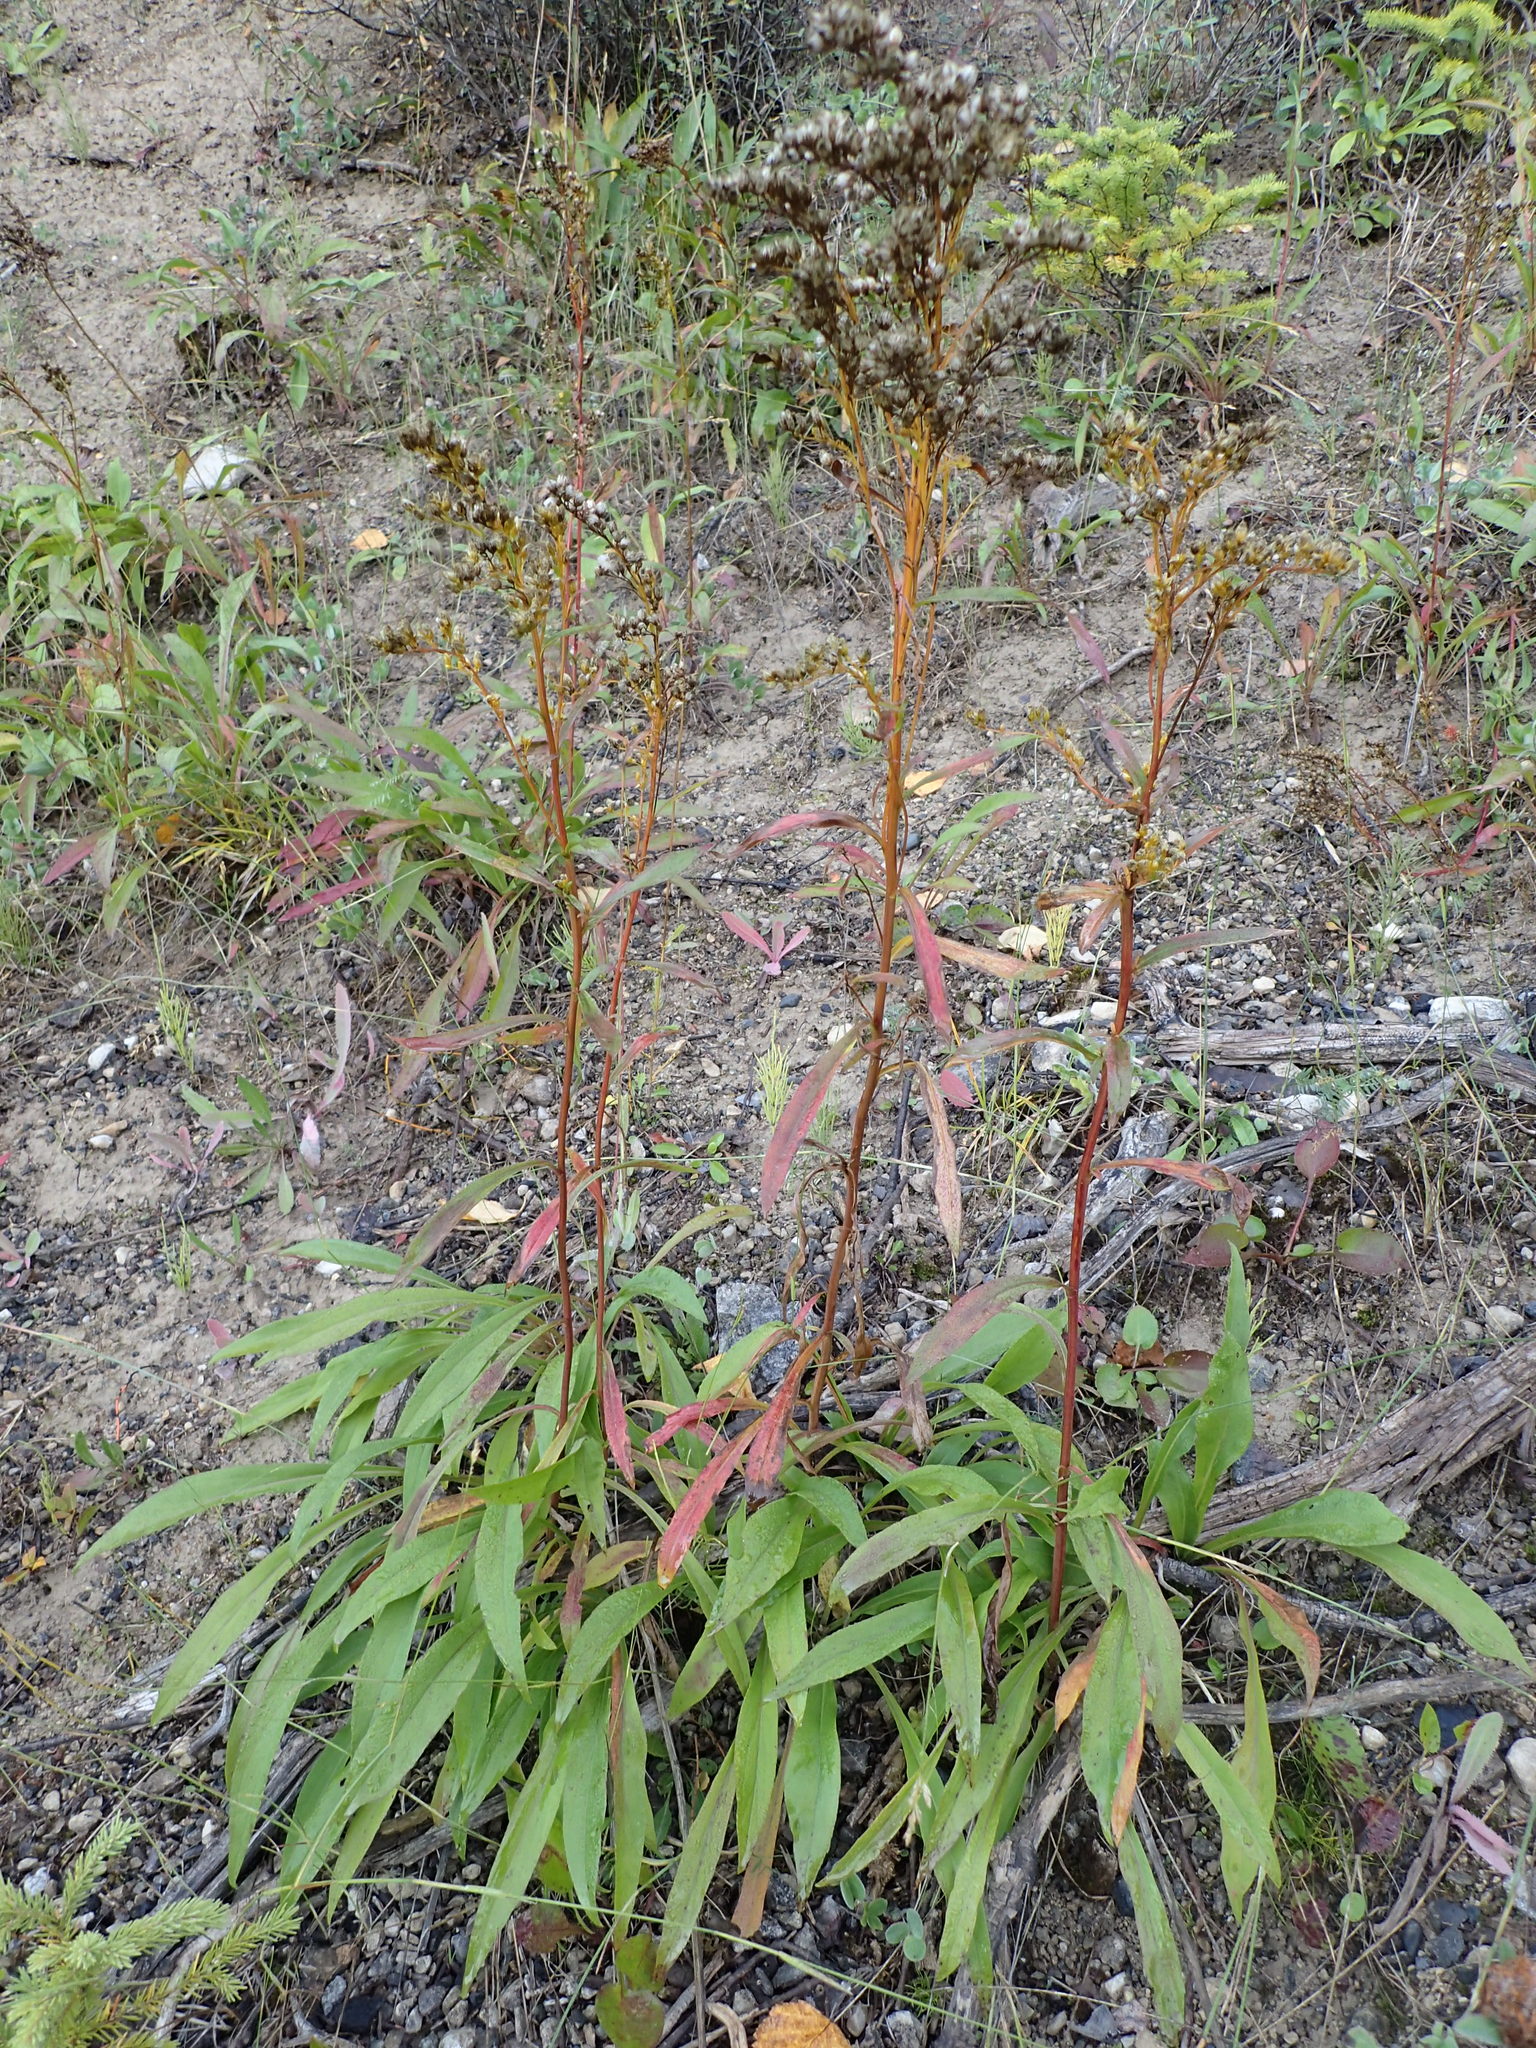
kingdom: Plantae
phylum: Tracheophyta
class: Magnoliopsida
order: Asterales
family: Asteraceae
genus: Solidago
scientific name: Solidago juncea
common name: Early goldenrod
